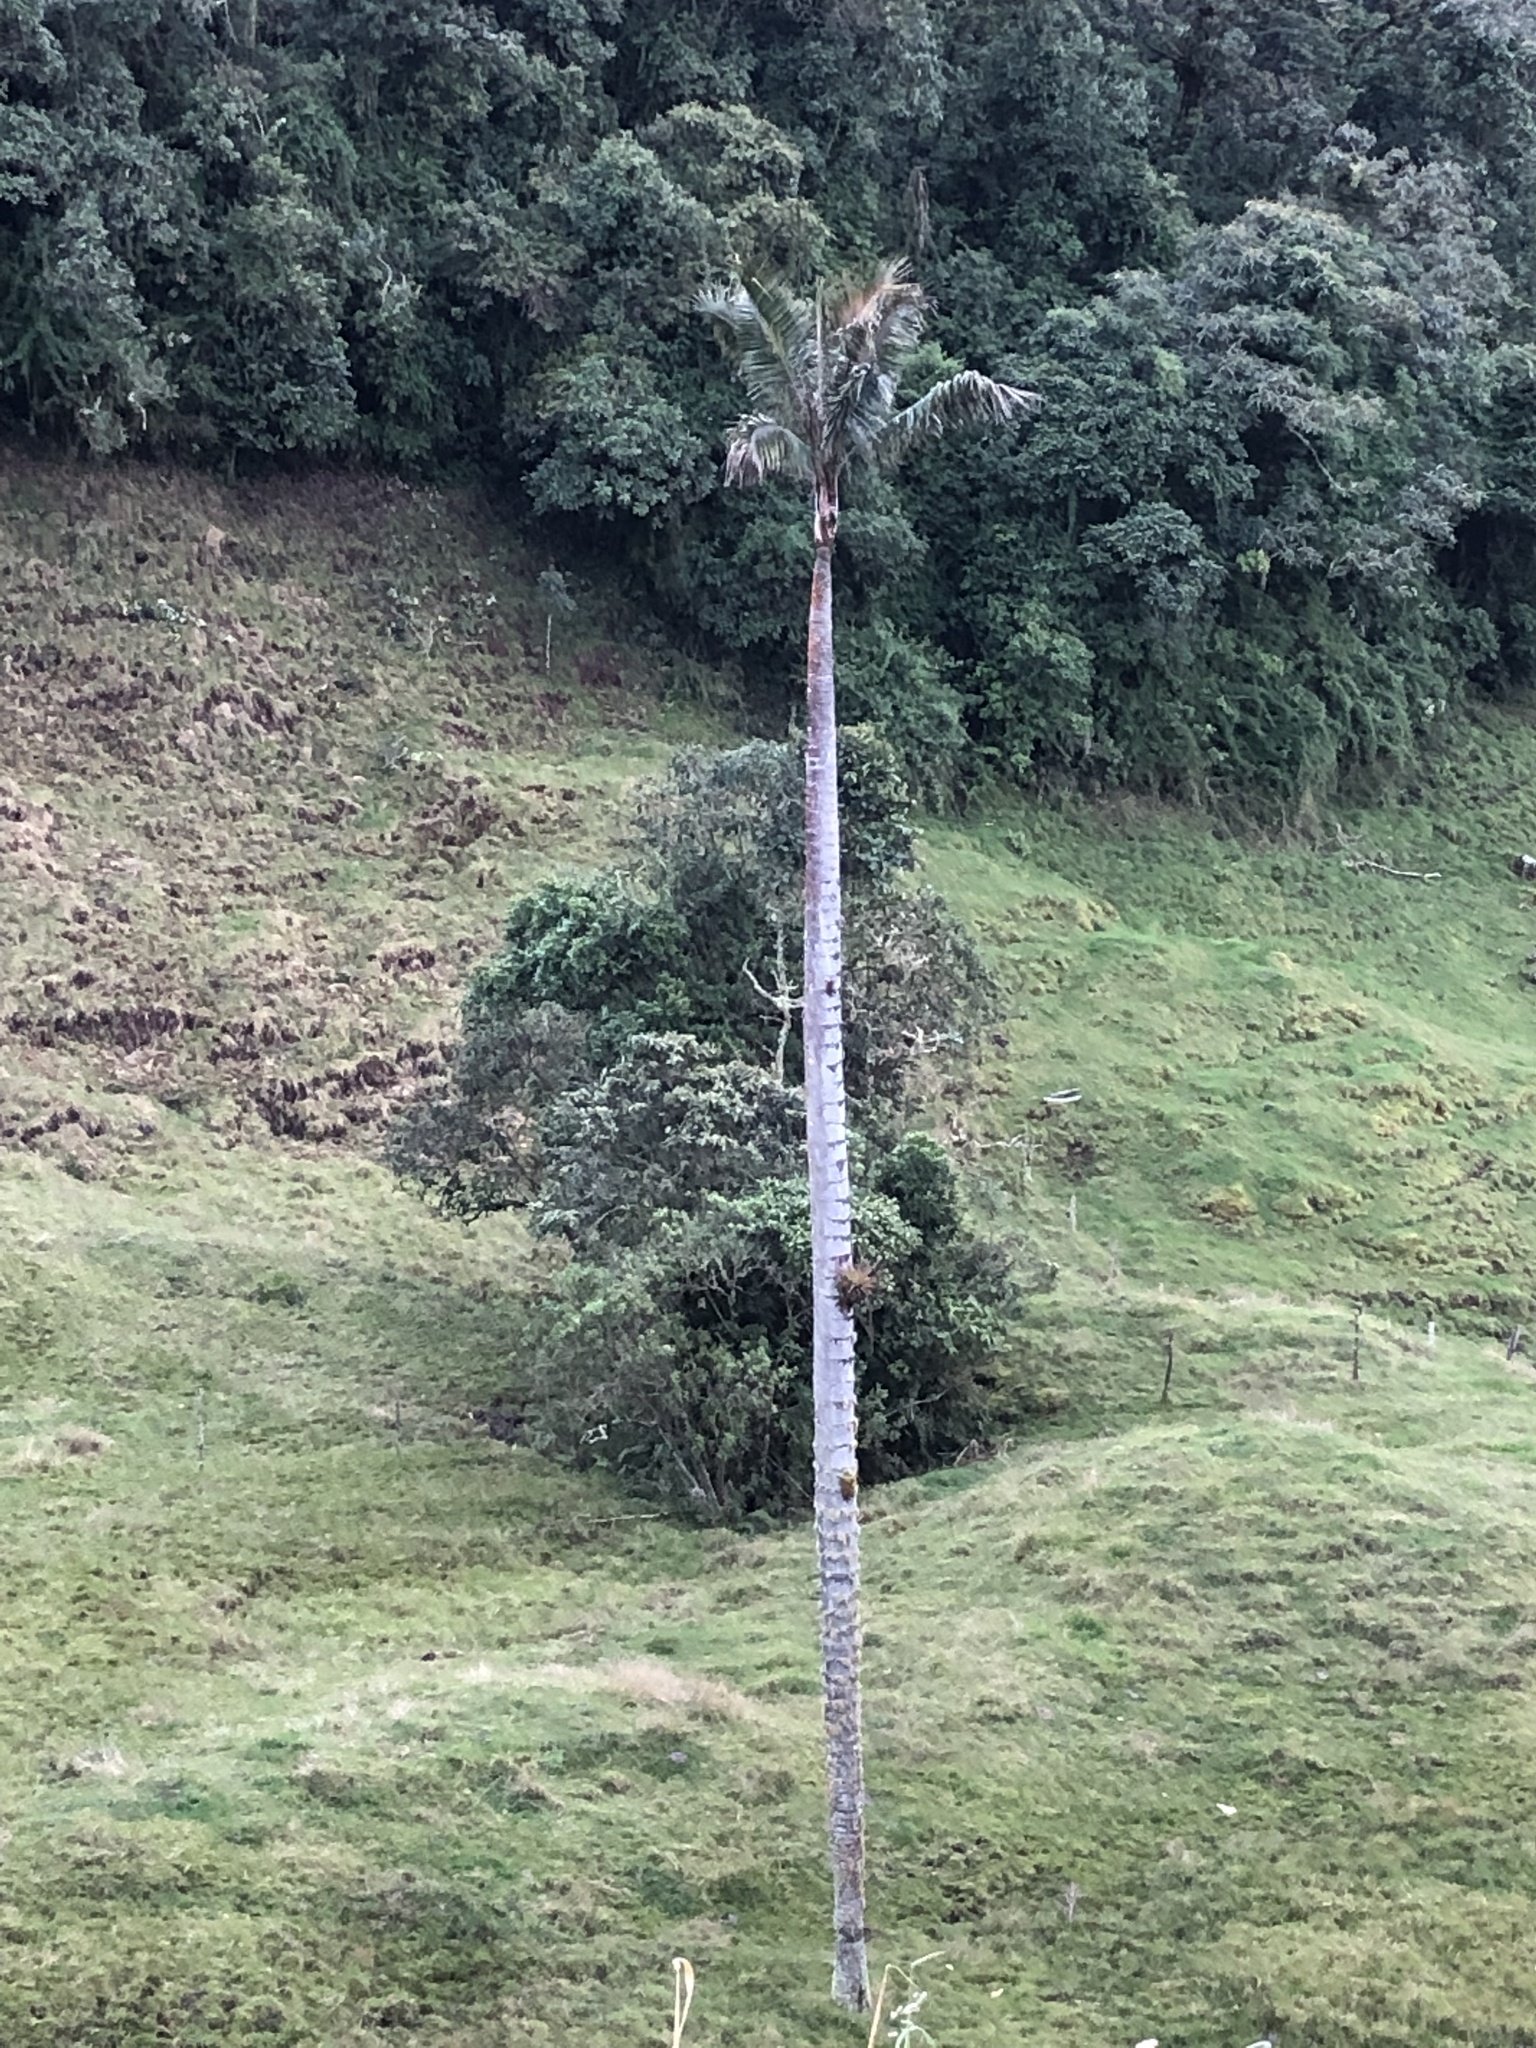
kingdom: Plantae
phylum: Tracheophyta
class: Liliopsida
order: Arecales
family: Arecaceae
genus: Ceroxylon
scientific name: Ceroxylon quindiuense
